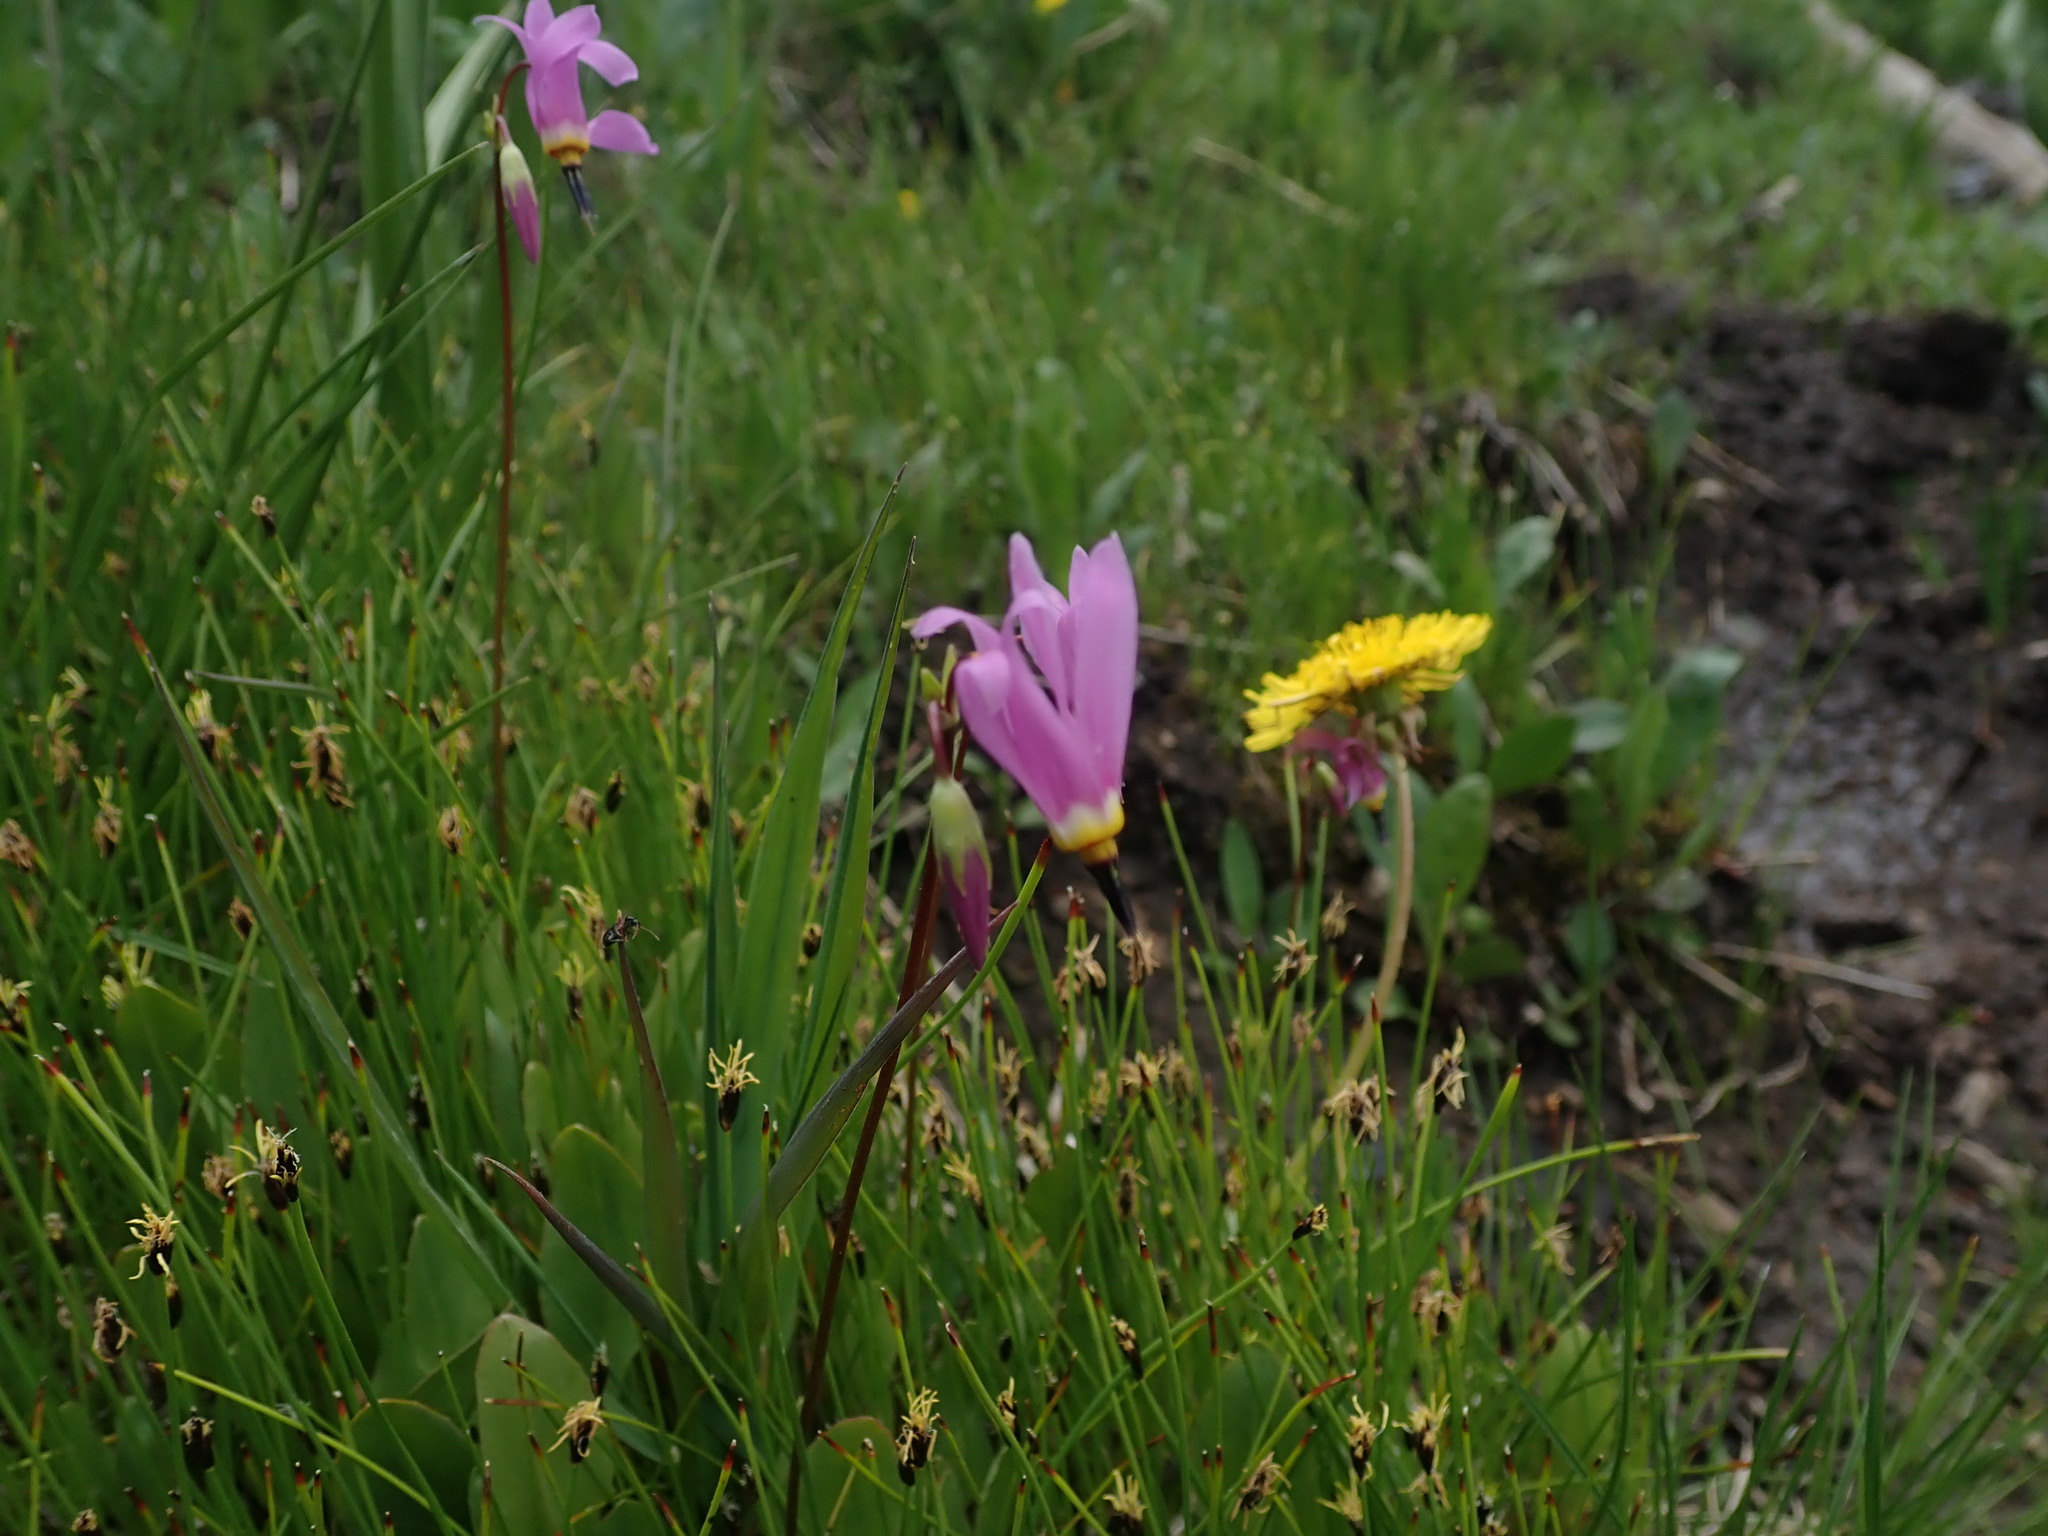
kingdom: Plantae
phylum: Tracheophyta
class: Magnoliopsida
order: Ericales
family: Primulaceae
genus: Dodecatheon
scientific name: Dodecatheon pulchellum
